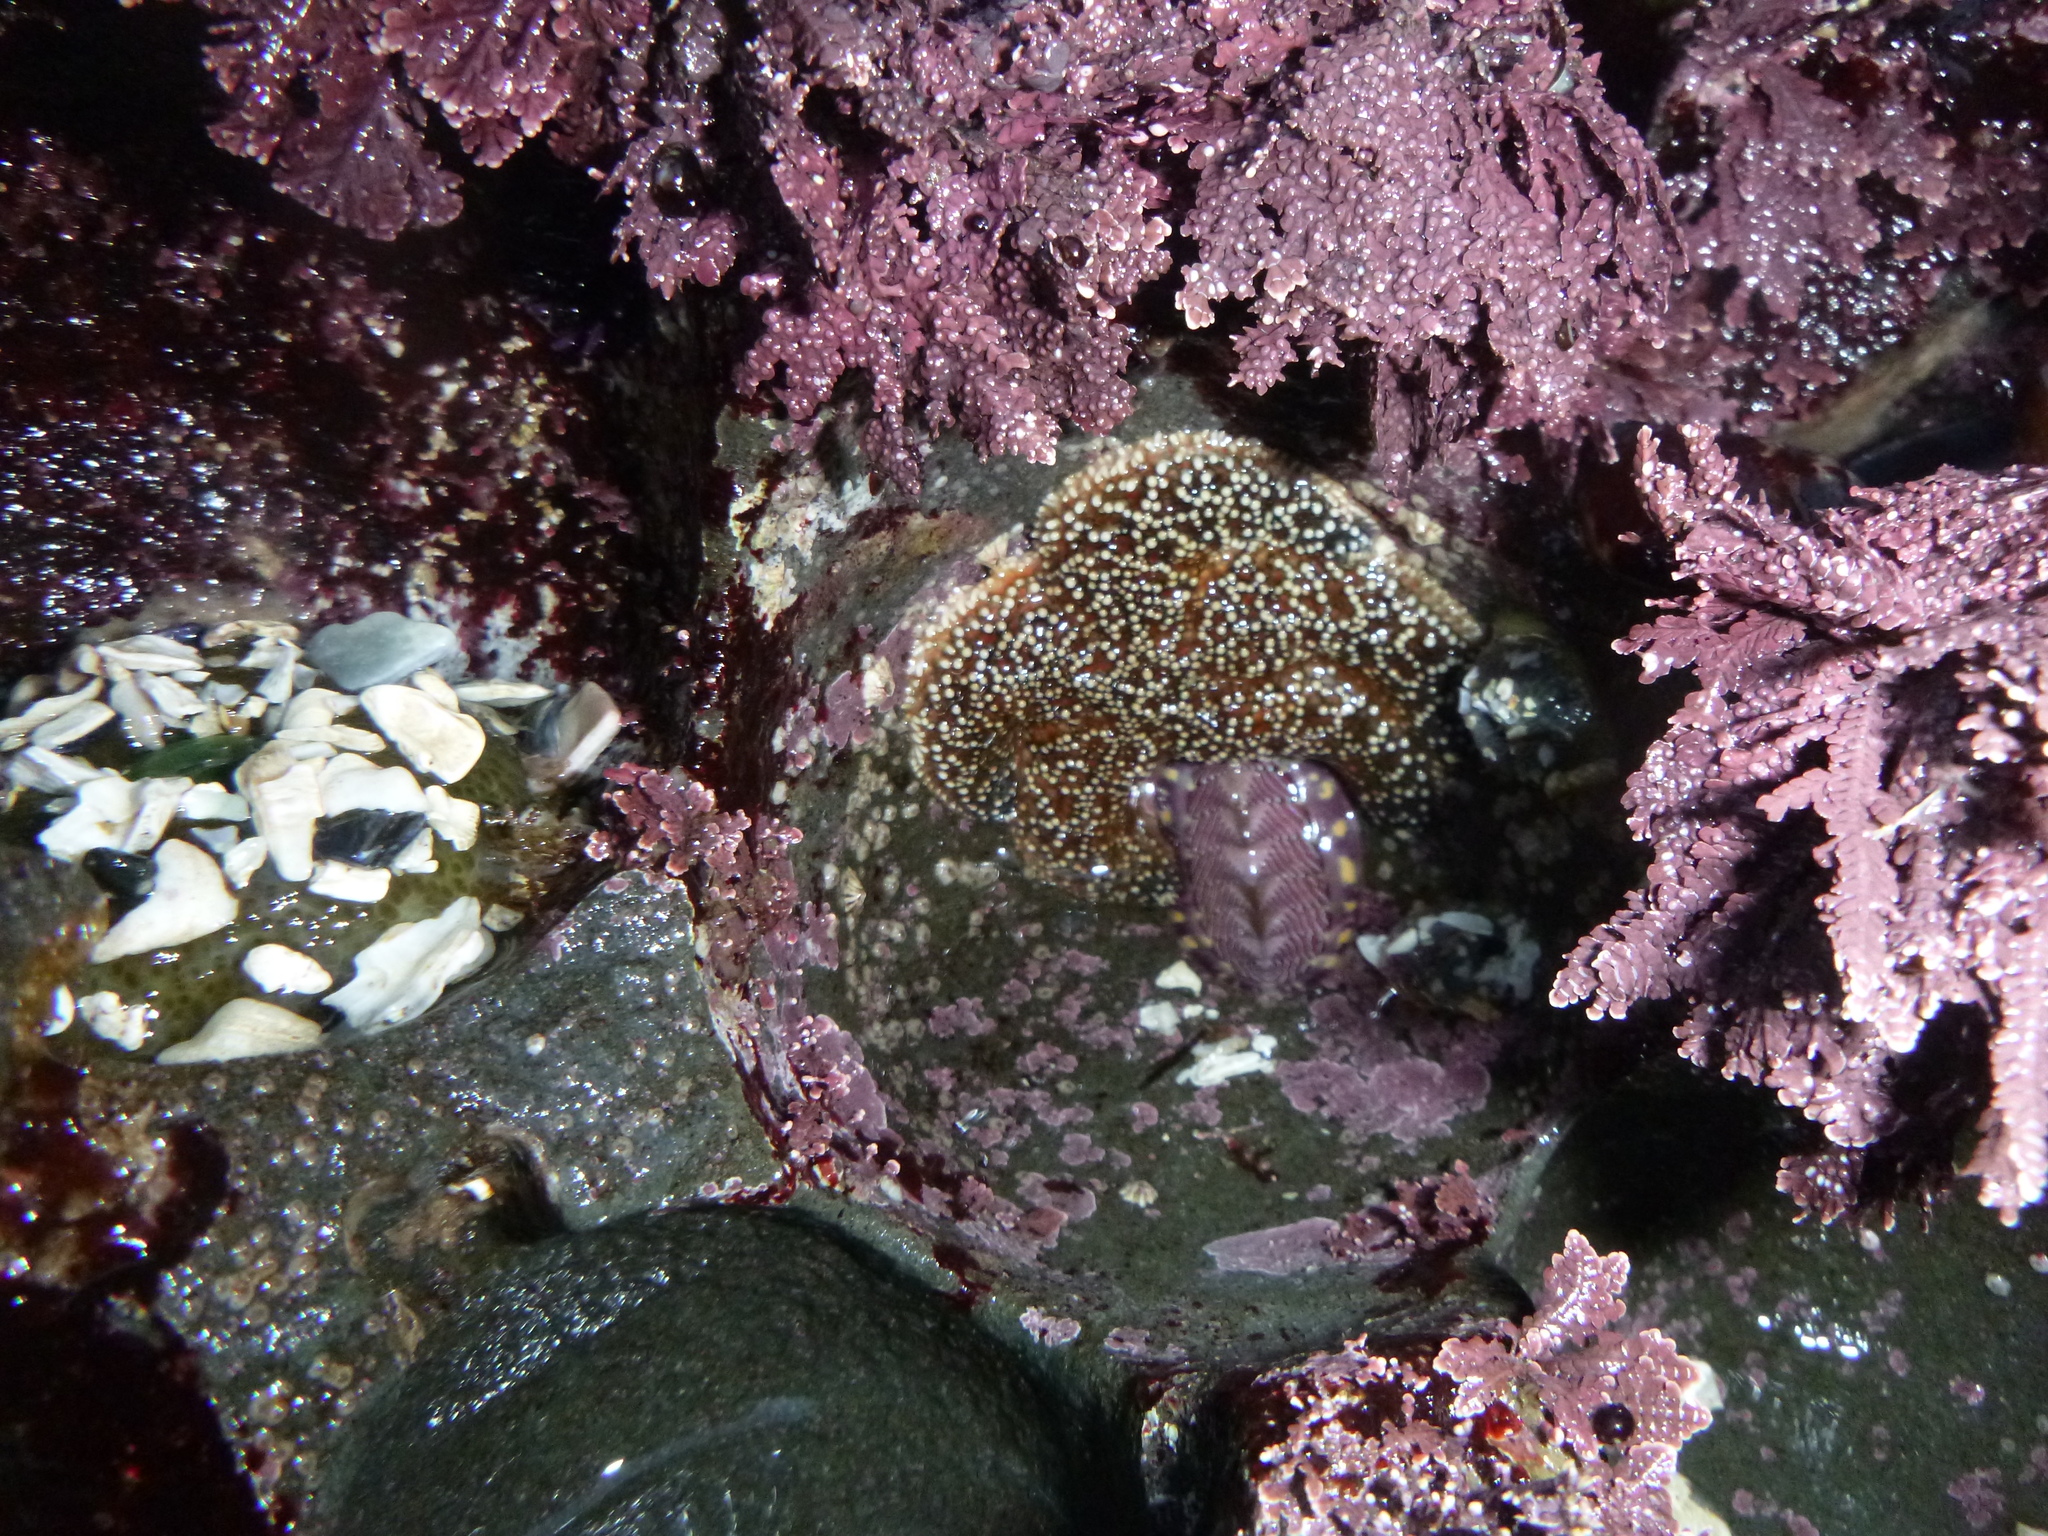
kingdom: Animalia
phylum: Echinodermata
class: Asteroidea
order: Forcipulatida
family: Asteriidae
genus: Pisaster
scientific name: Pisaster ochraceus
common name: Ochre stars
